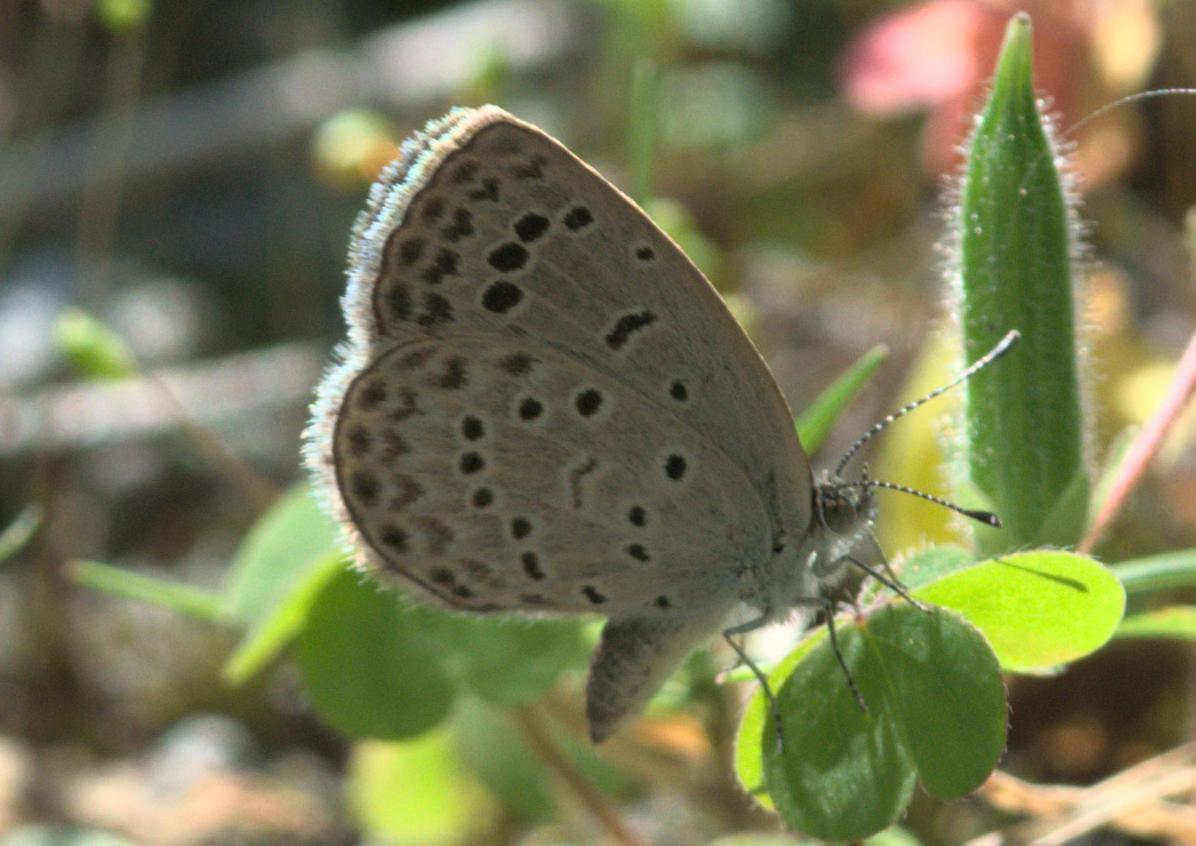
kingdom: Animalia
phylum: Arthropoda
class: Insecta
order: Lepidoptera
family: Lycaenidae
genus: Pseudozizeeria
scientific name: Pseudozizeeria maha
